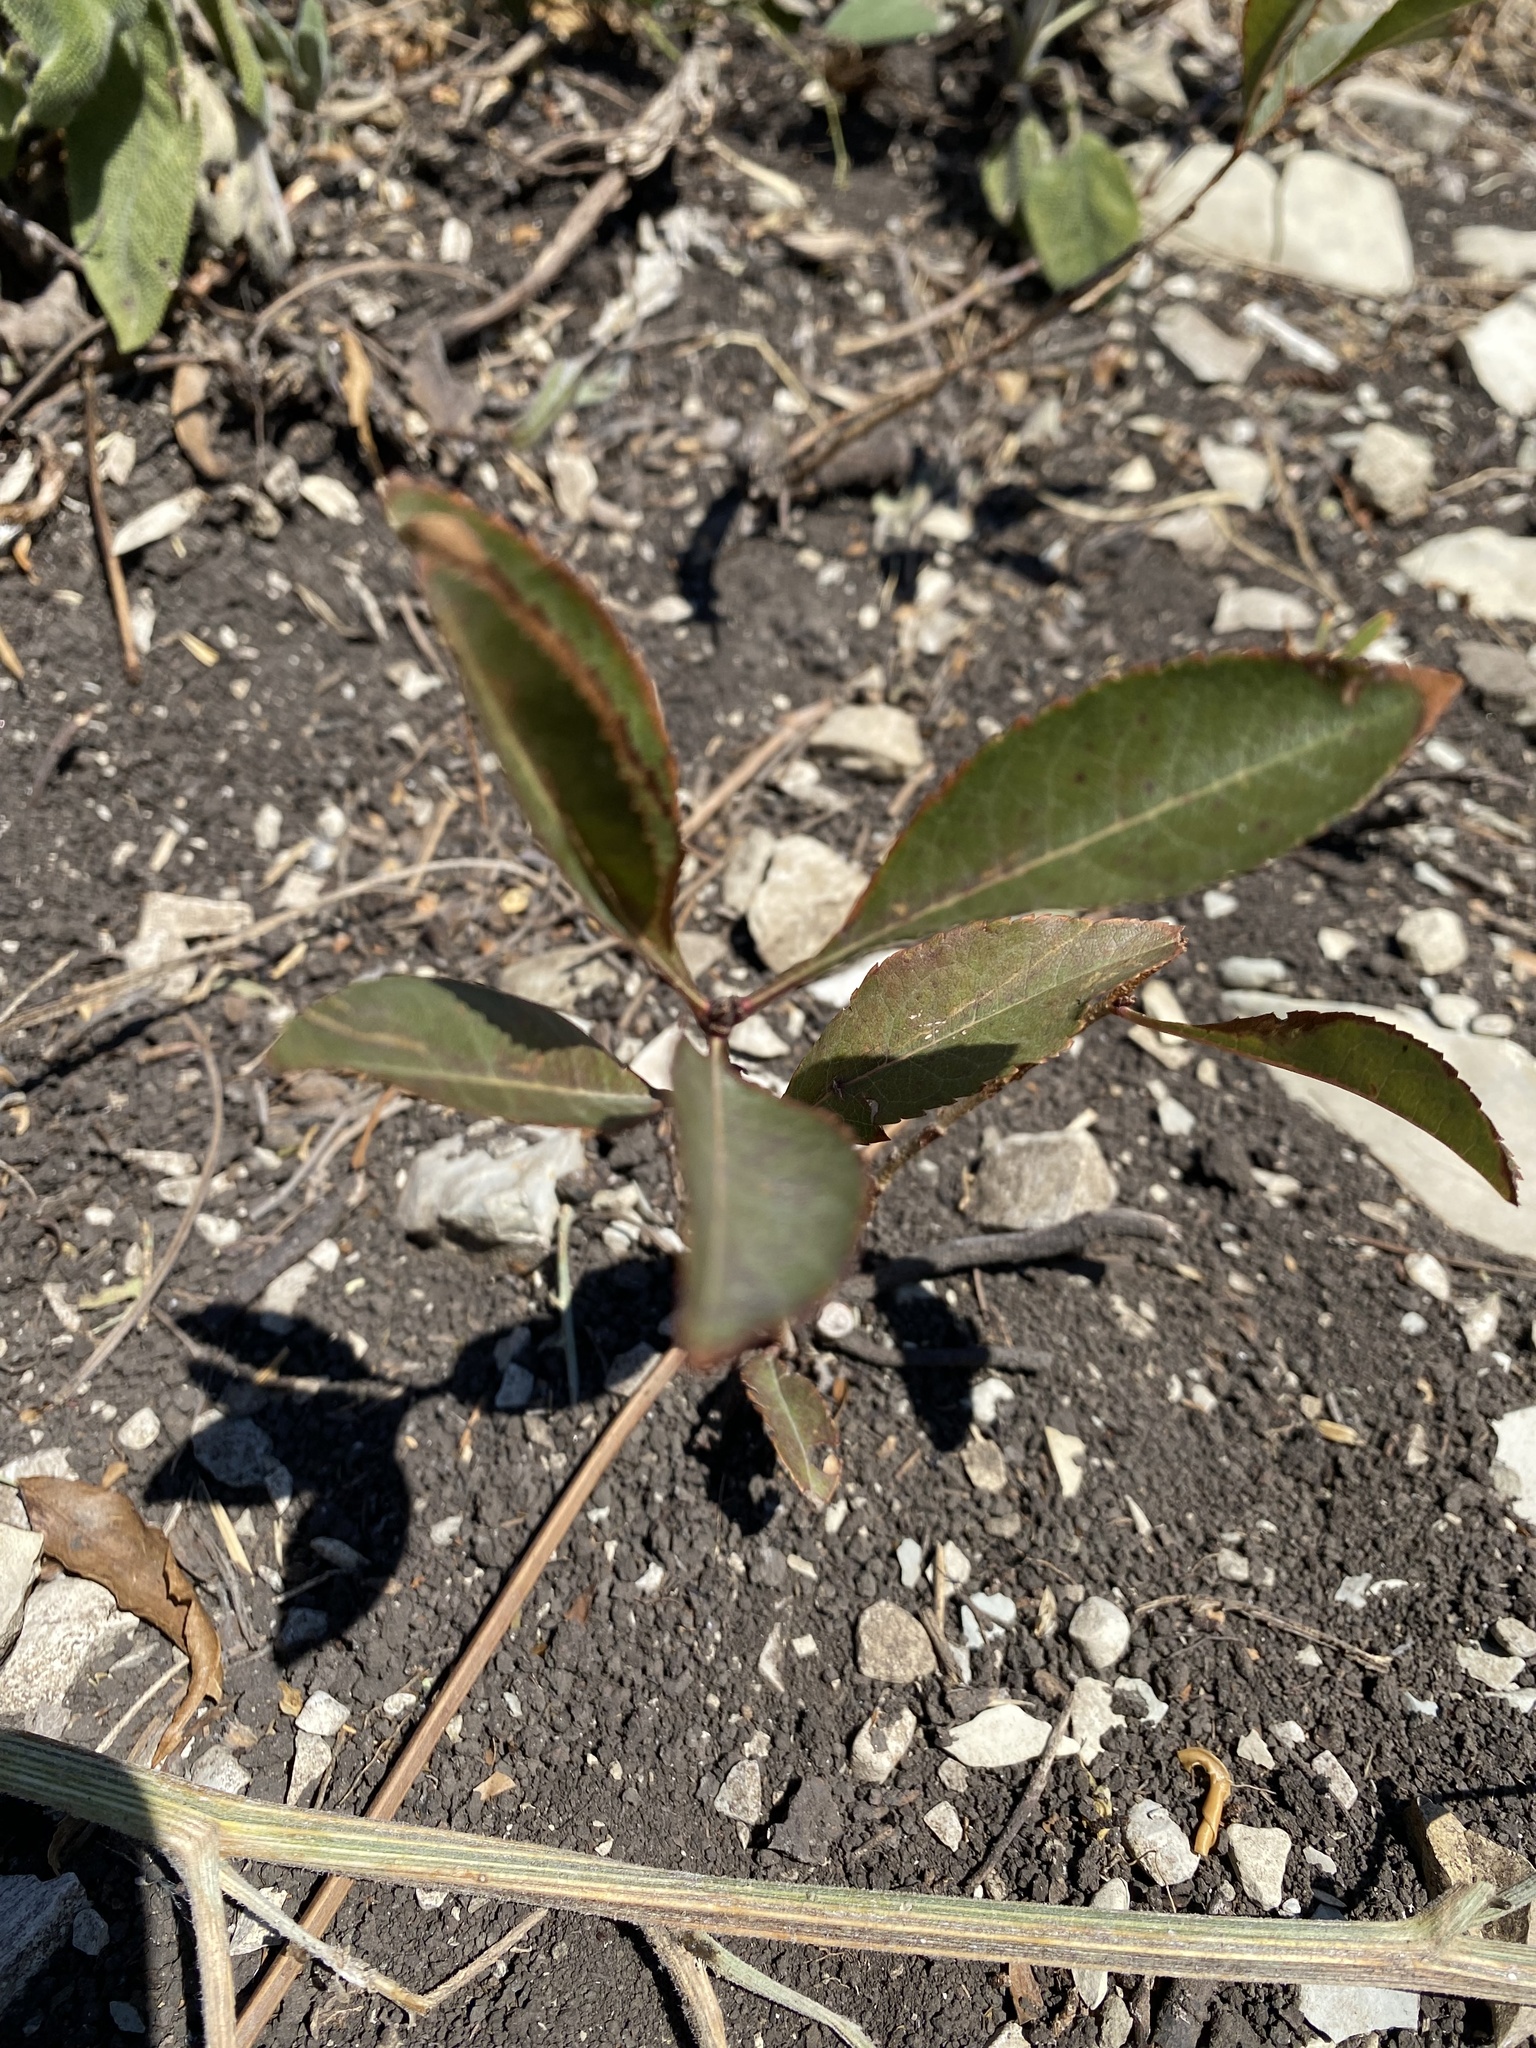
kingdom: Plantae
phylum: Tracheophyta
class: Magnoliopsida
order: Rosales
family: Rosaceae
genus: Prunus
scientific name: Prunus tenella
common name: Dwarf russian almond
